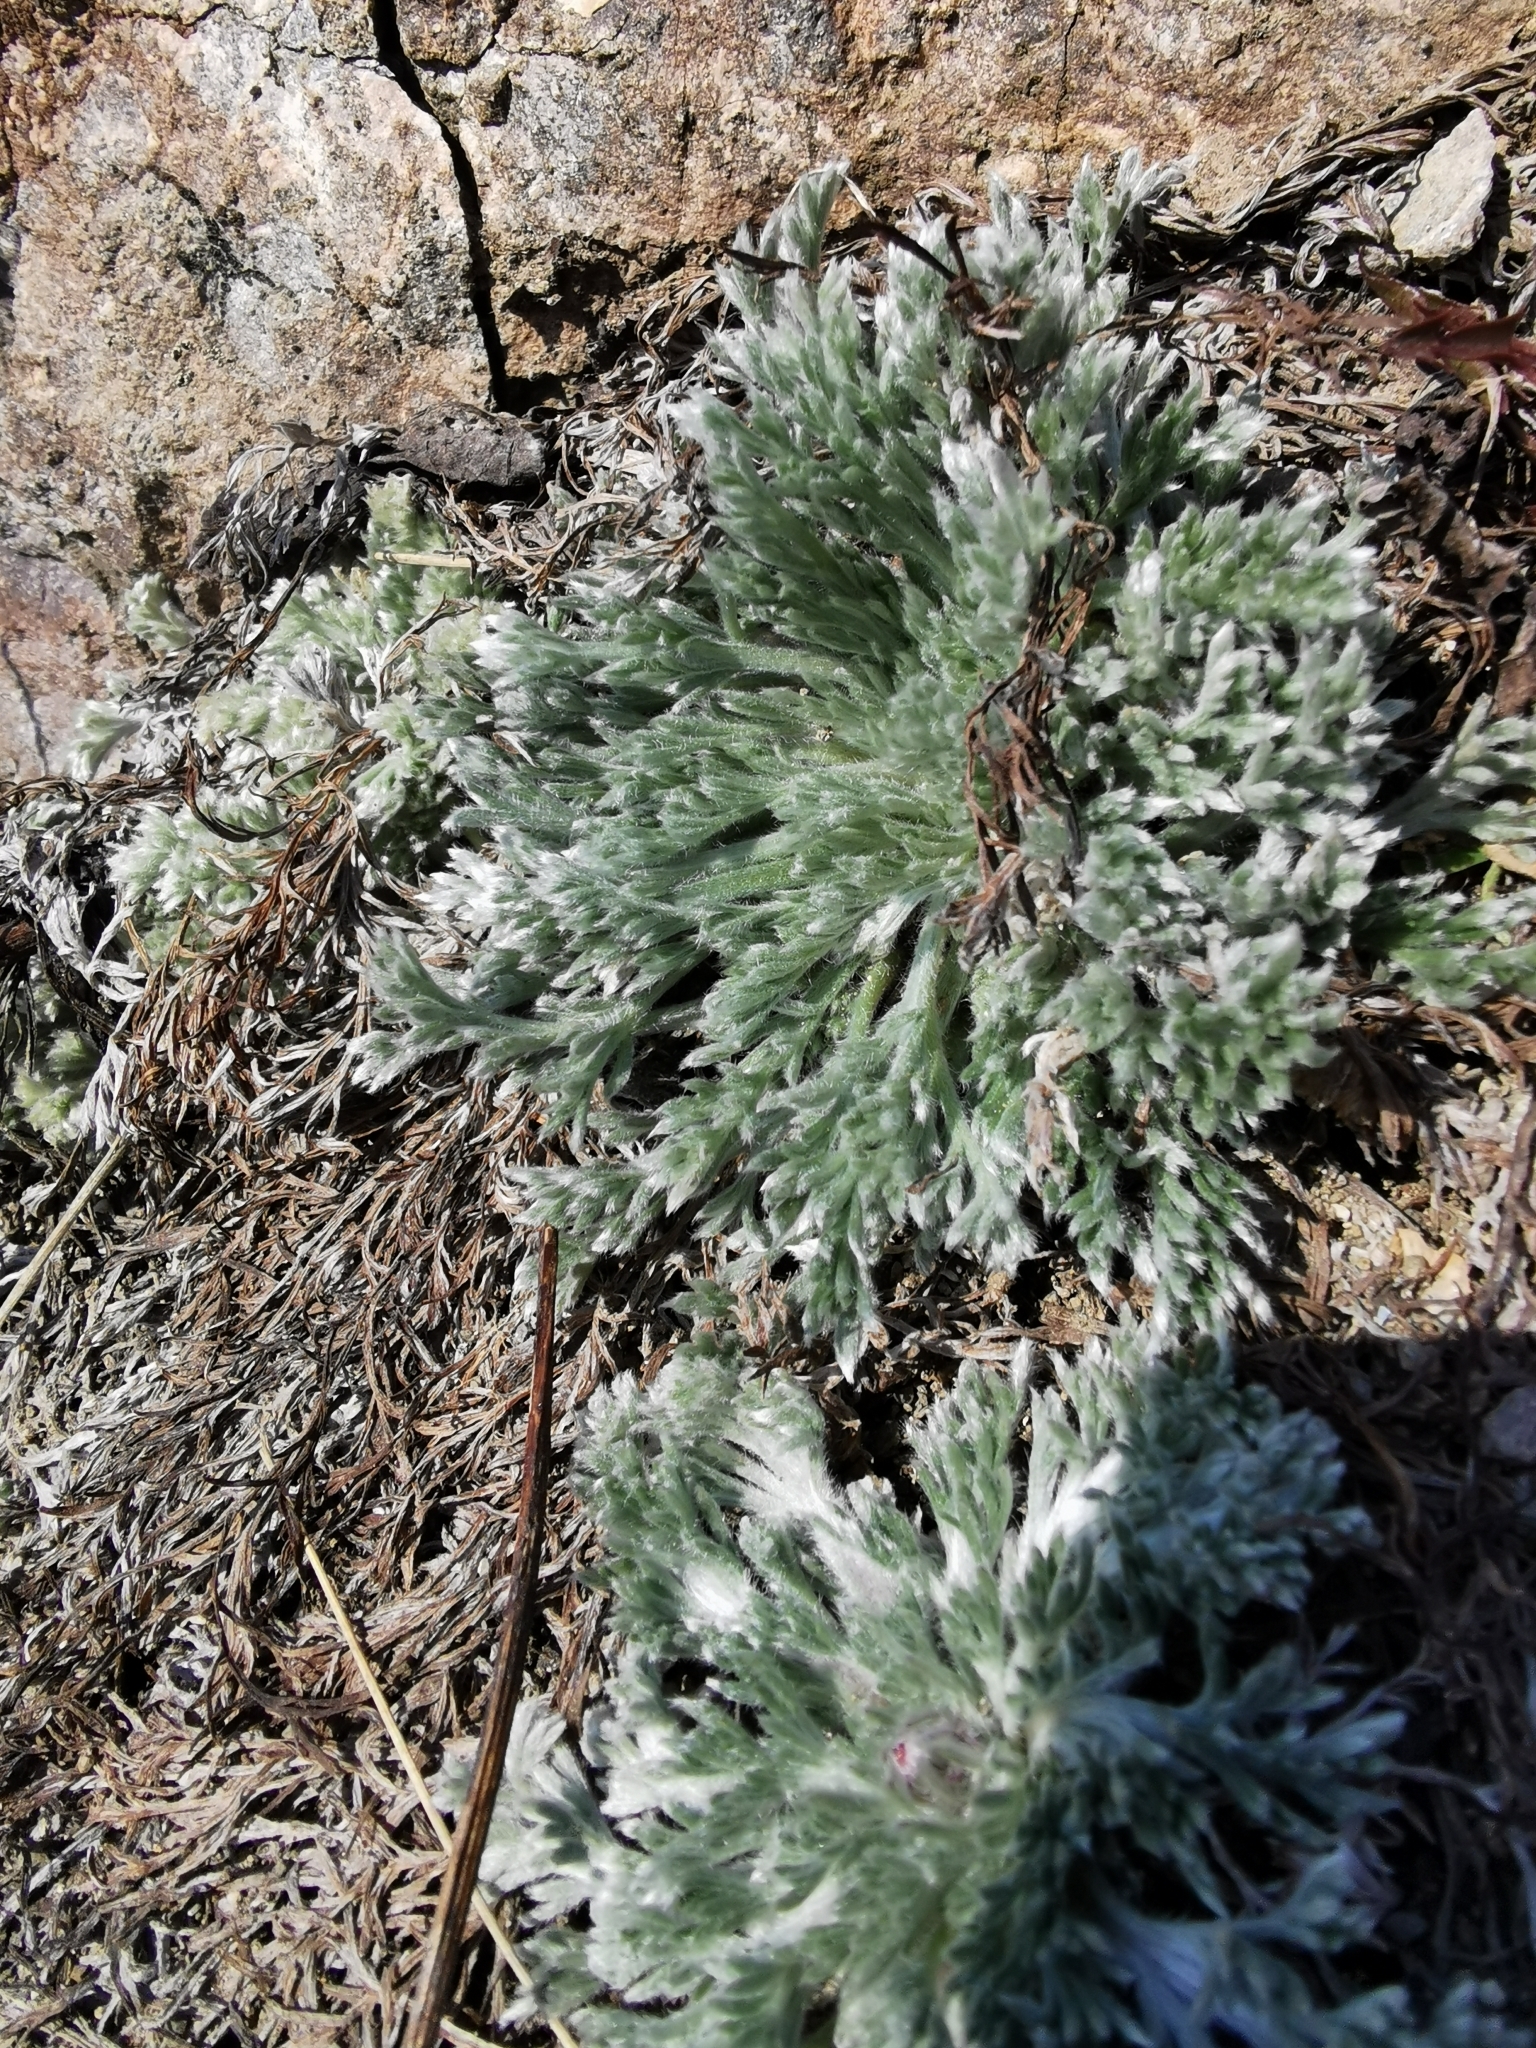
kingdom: Plantae
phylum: Tracheophyta
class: Magnoliopsida
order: Asterales
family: Asteraceae
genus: Artemisia
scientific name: Artemisia borealis
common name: Boreal sage
